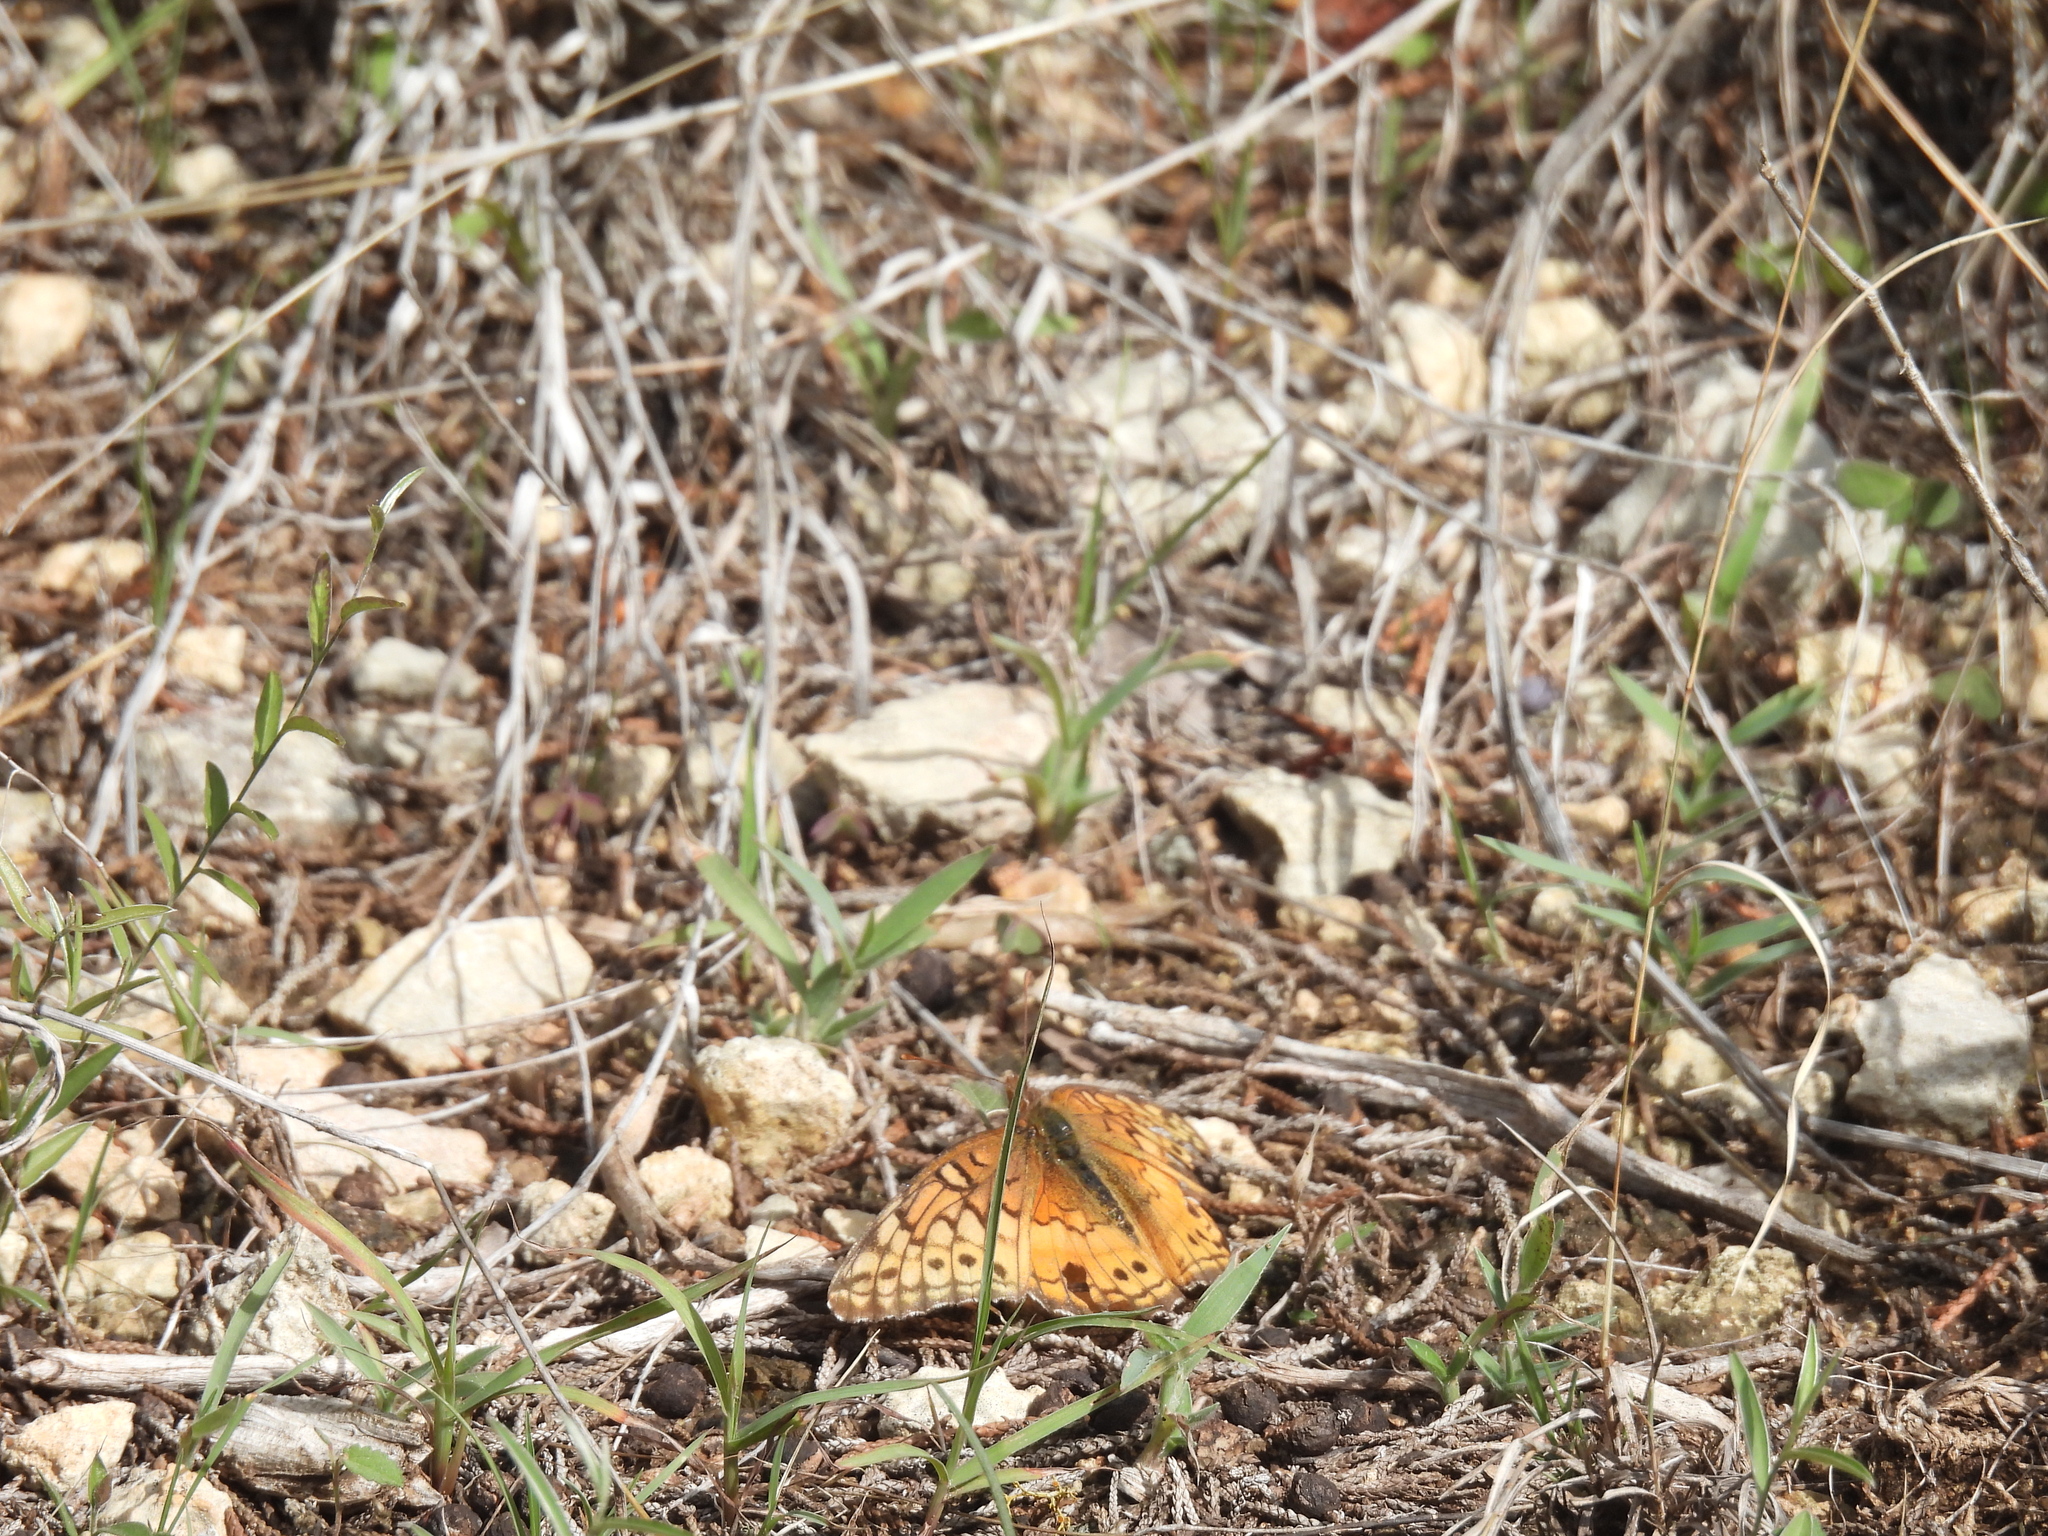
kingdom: Animalia
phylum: Arthropoda
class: Insecta
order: Lepidoptera
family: Nymphalidae
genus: Euptoieta
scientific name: Euptoieta claudia
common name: Variegated fritillary
